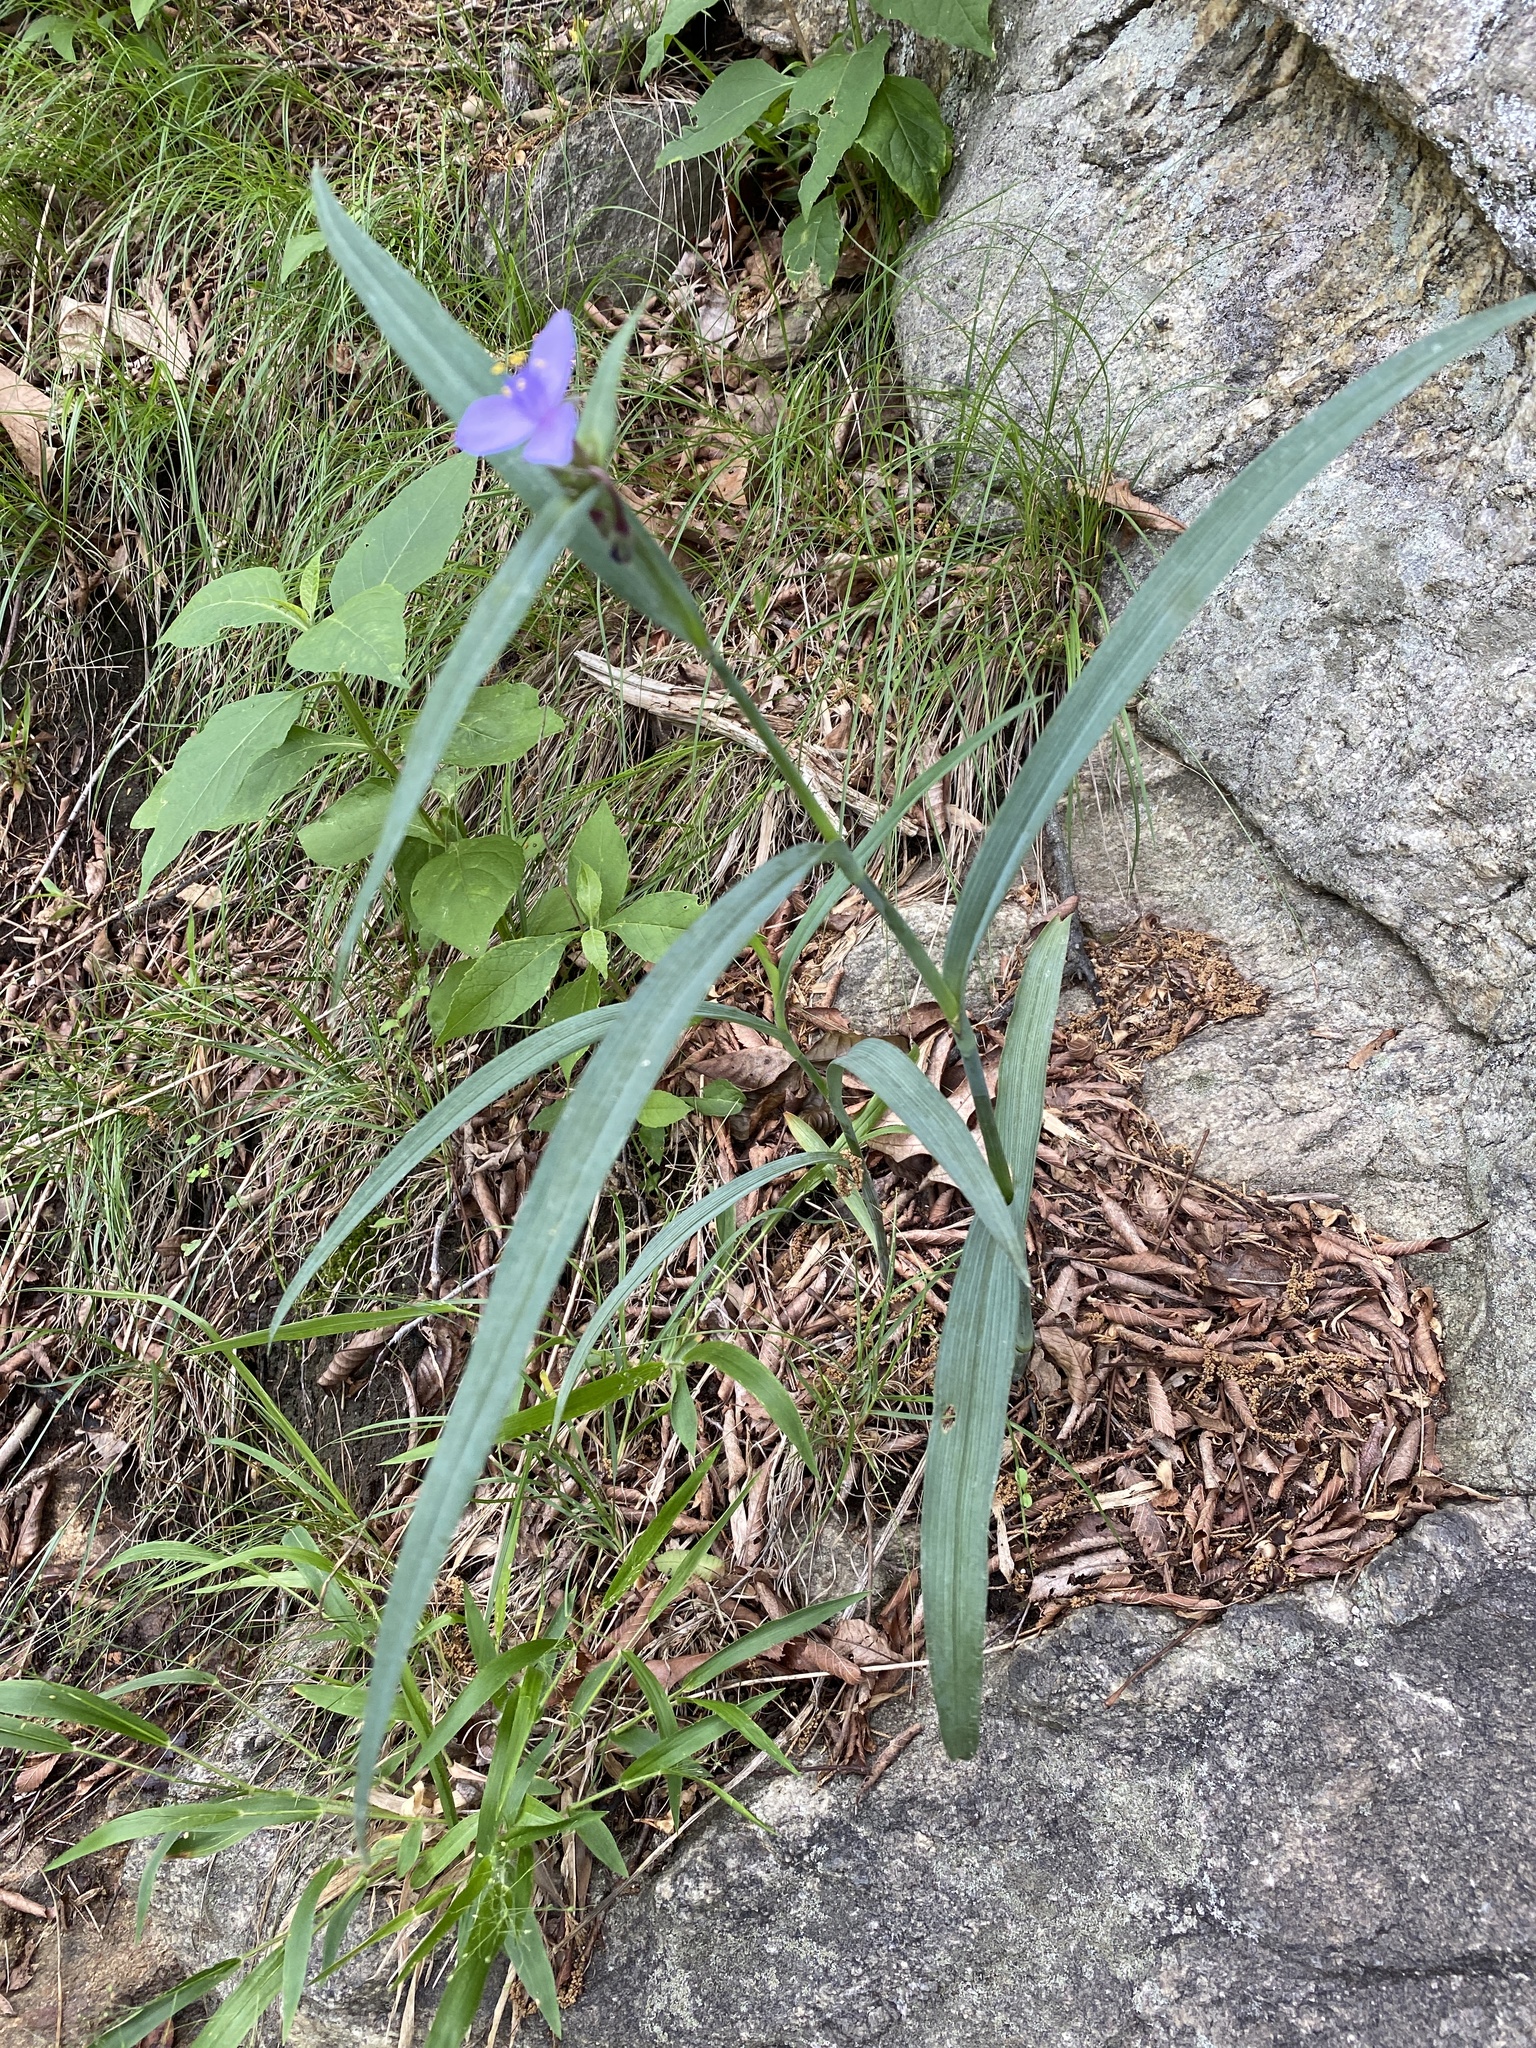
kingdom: Plantae
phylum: Tracheophyta
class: Liliopsida
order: Commelinales
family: Commelinaceae
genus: Tradescantia
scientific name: Tradescantia
